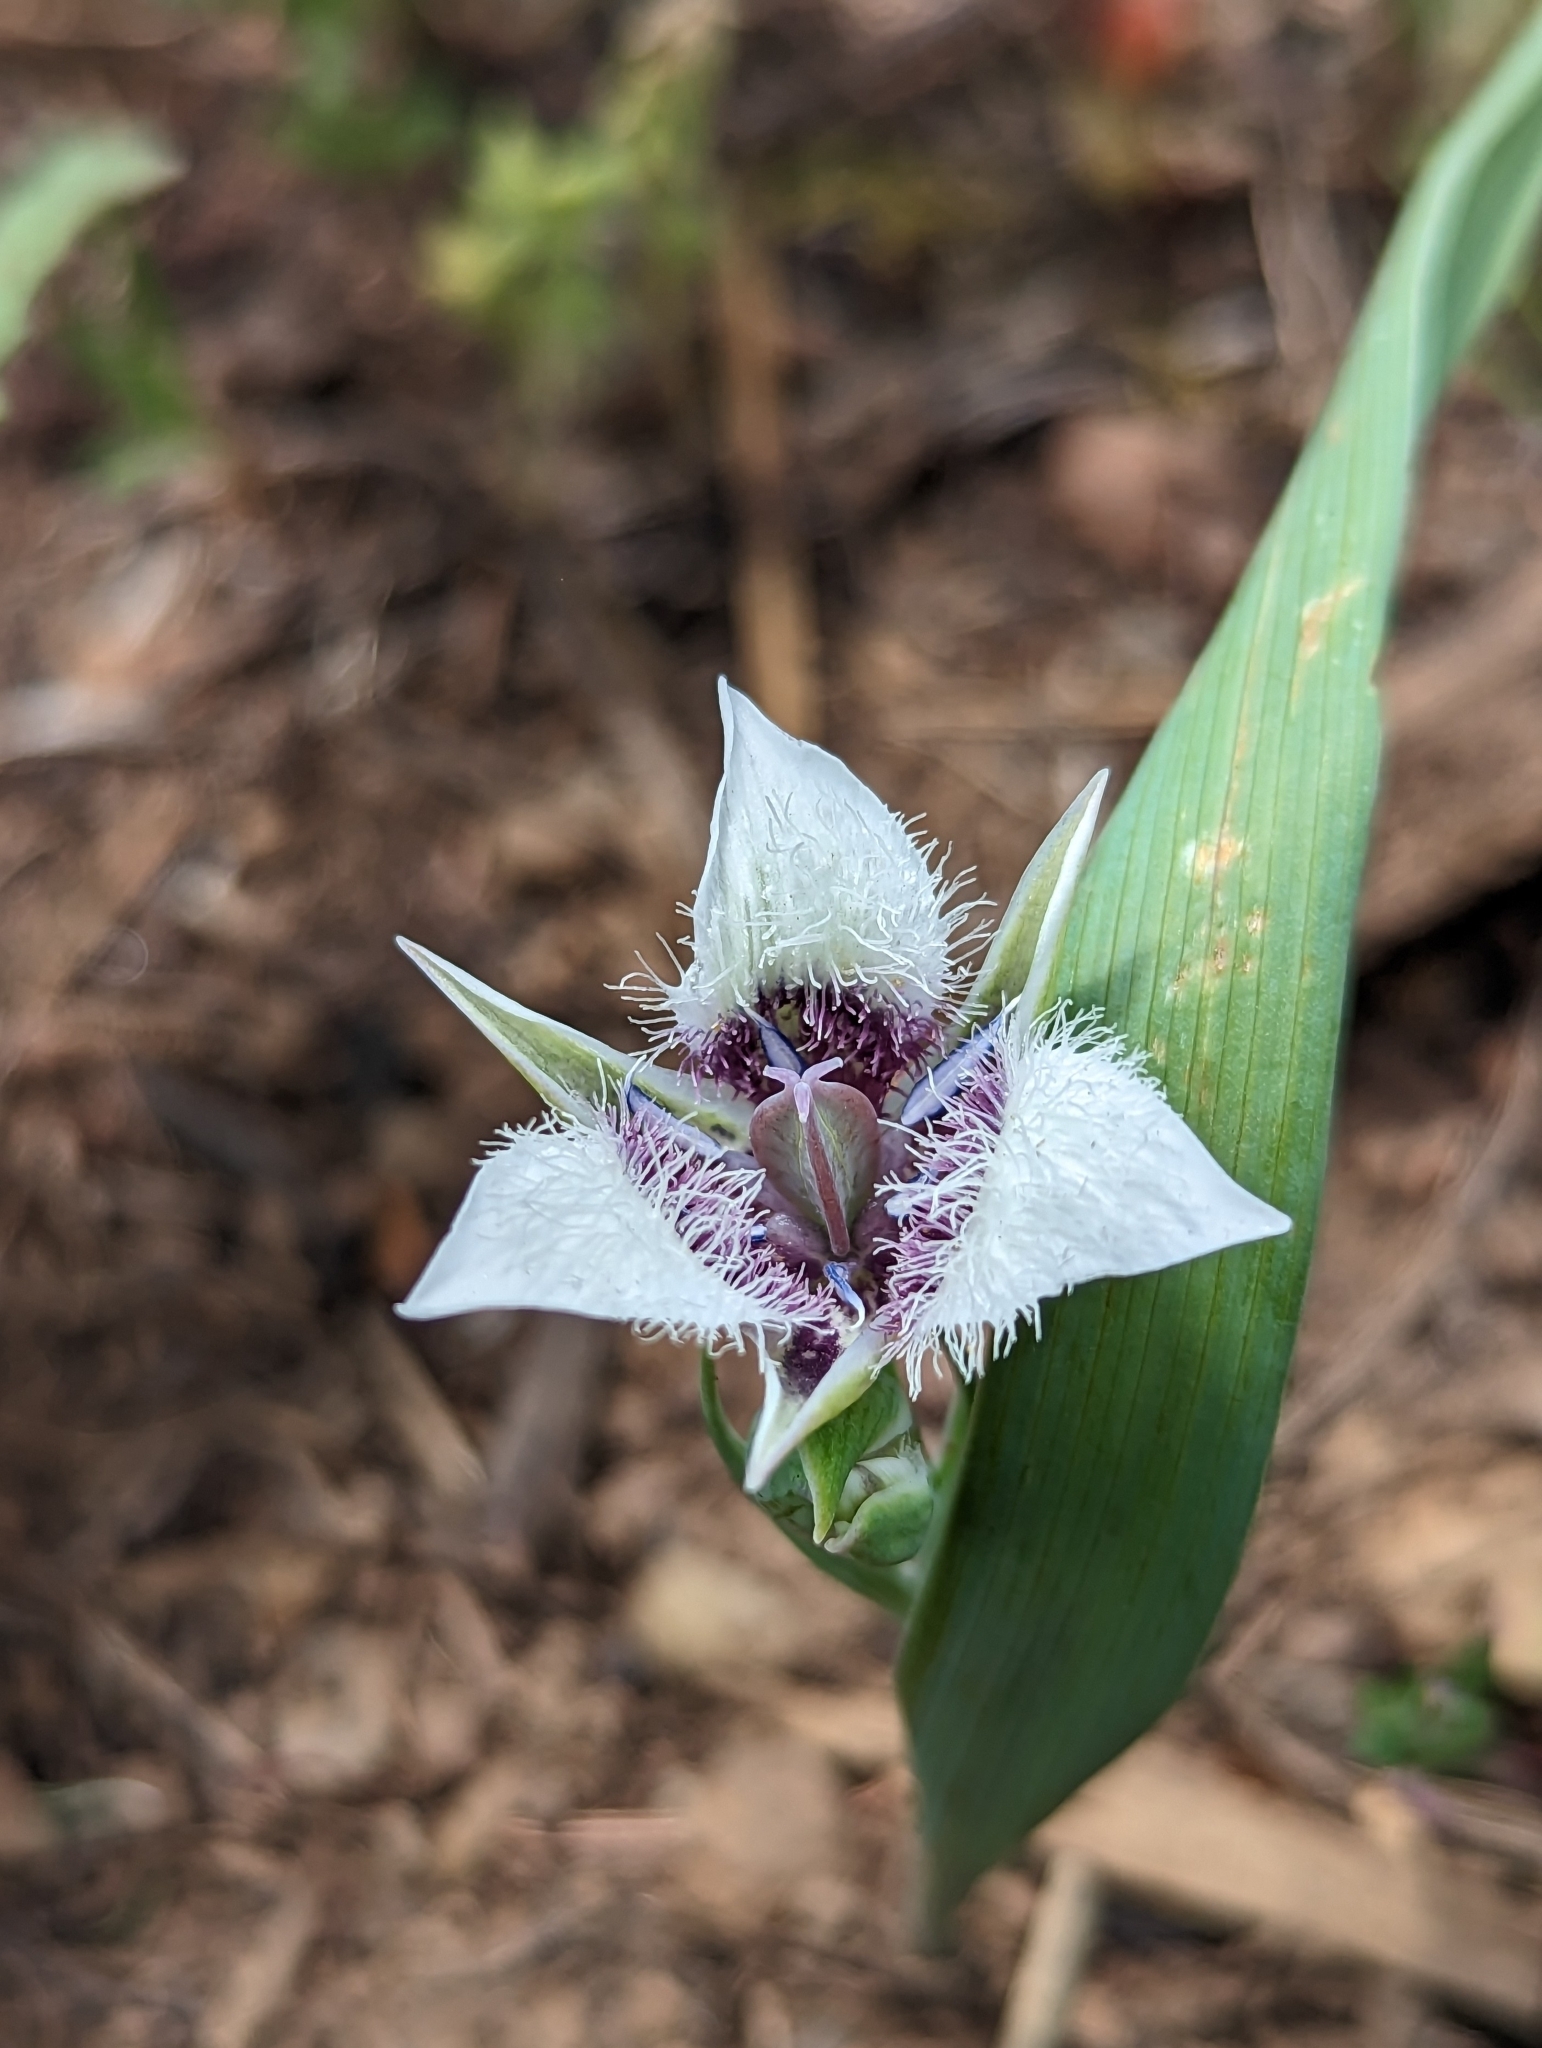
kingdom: Plantae
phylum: Tracheophyta
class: Liliopsida
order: Liliales
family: Liliaceae
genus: Calochortus
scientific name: Calochortus elegans
